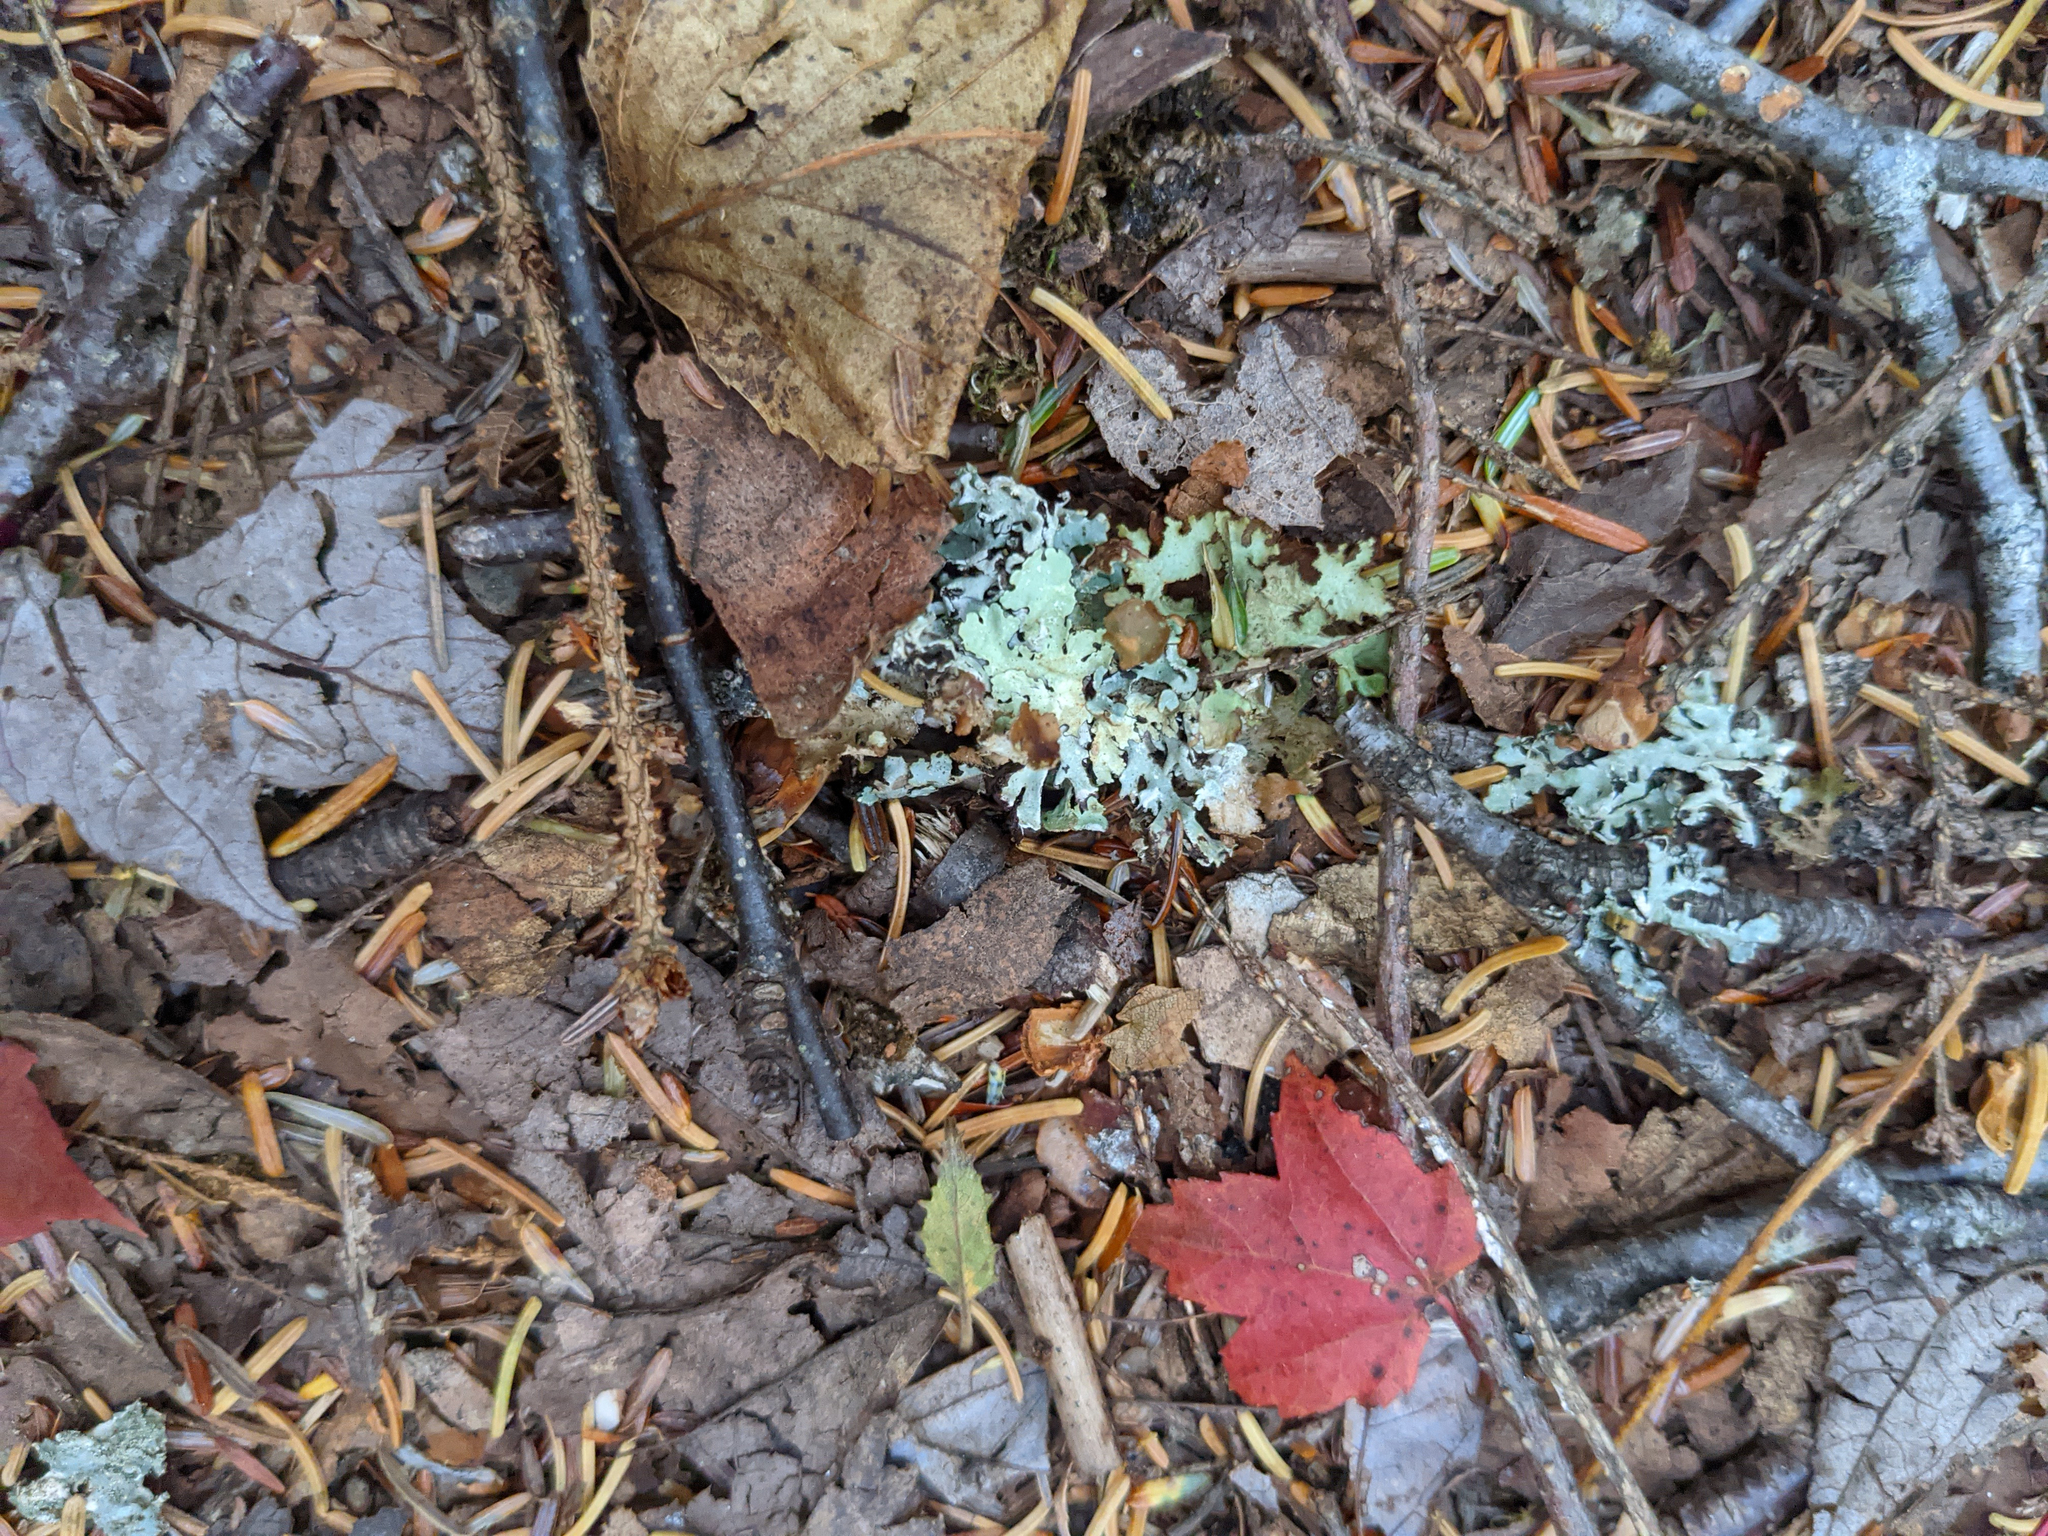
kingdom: Plantae
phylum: Tracheophyta
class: Magnoliopsida
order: Sapindales
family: Sapindaceae
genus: Acer
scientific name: Acer rubrum
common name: Red maple
